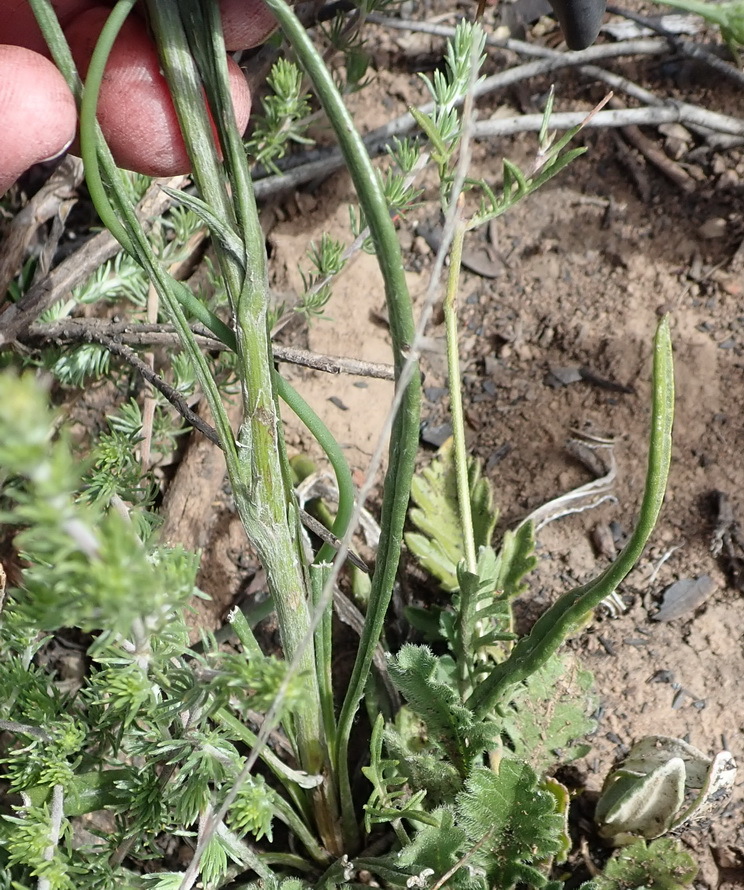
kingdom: Plantae
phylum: Tracheophyta
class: Magnoliopsida
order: Asterales
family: Asteraceae
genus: Senecio
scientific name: Senecio paniculatus
